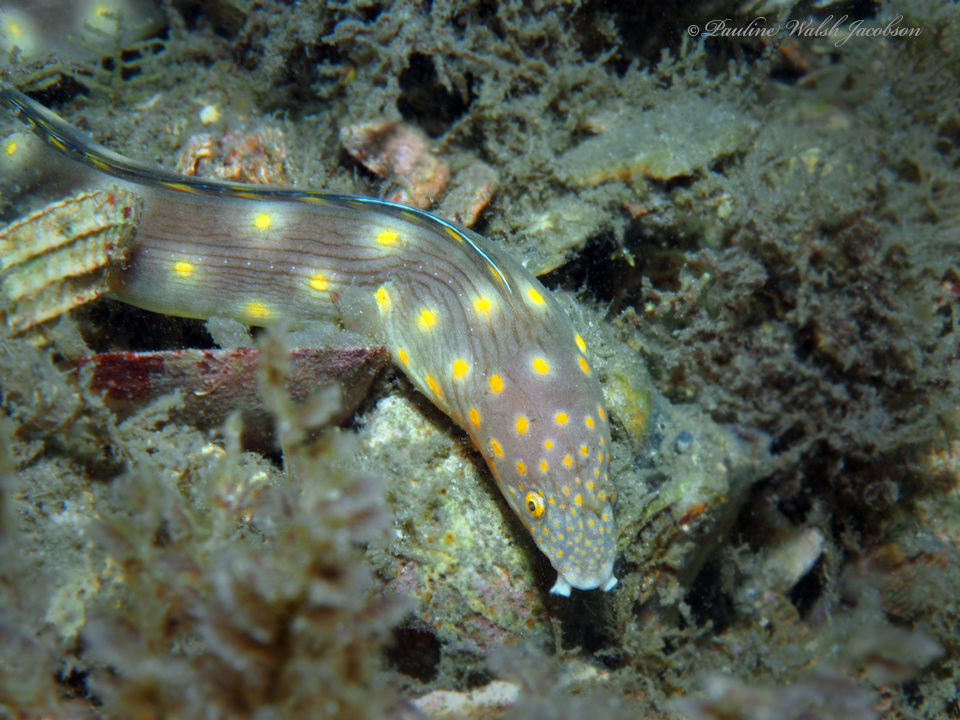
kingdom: Animalia
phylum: Chordata
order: Anguilliformes
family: Ophichthidae
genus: Myrichthys
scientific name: Myrichthys breviceps
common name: Sharptail eel
